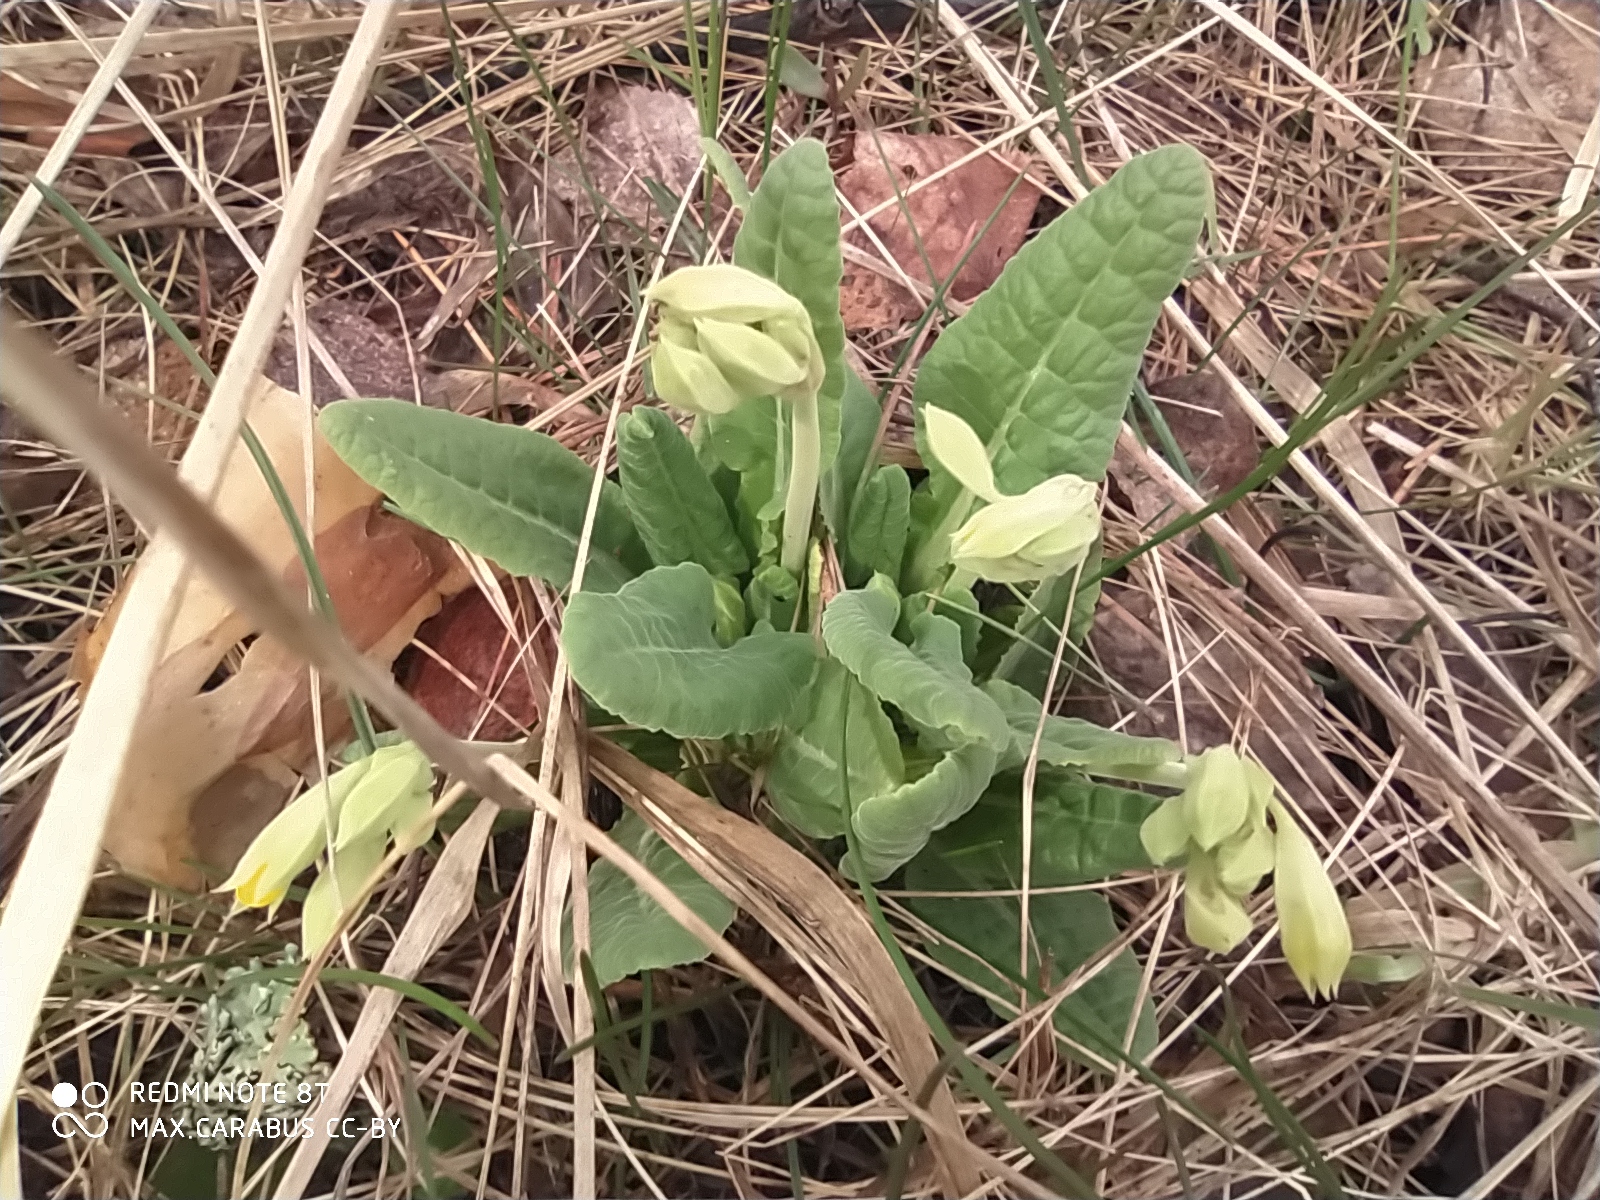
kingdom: Plantae
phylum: Tracheophyta
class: Magnoliopsida
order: Ericales
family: Primulaceae
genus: Primula
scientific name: Primula veris
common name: Cowslip
